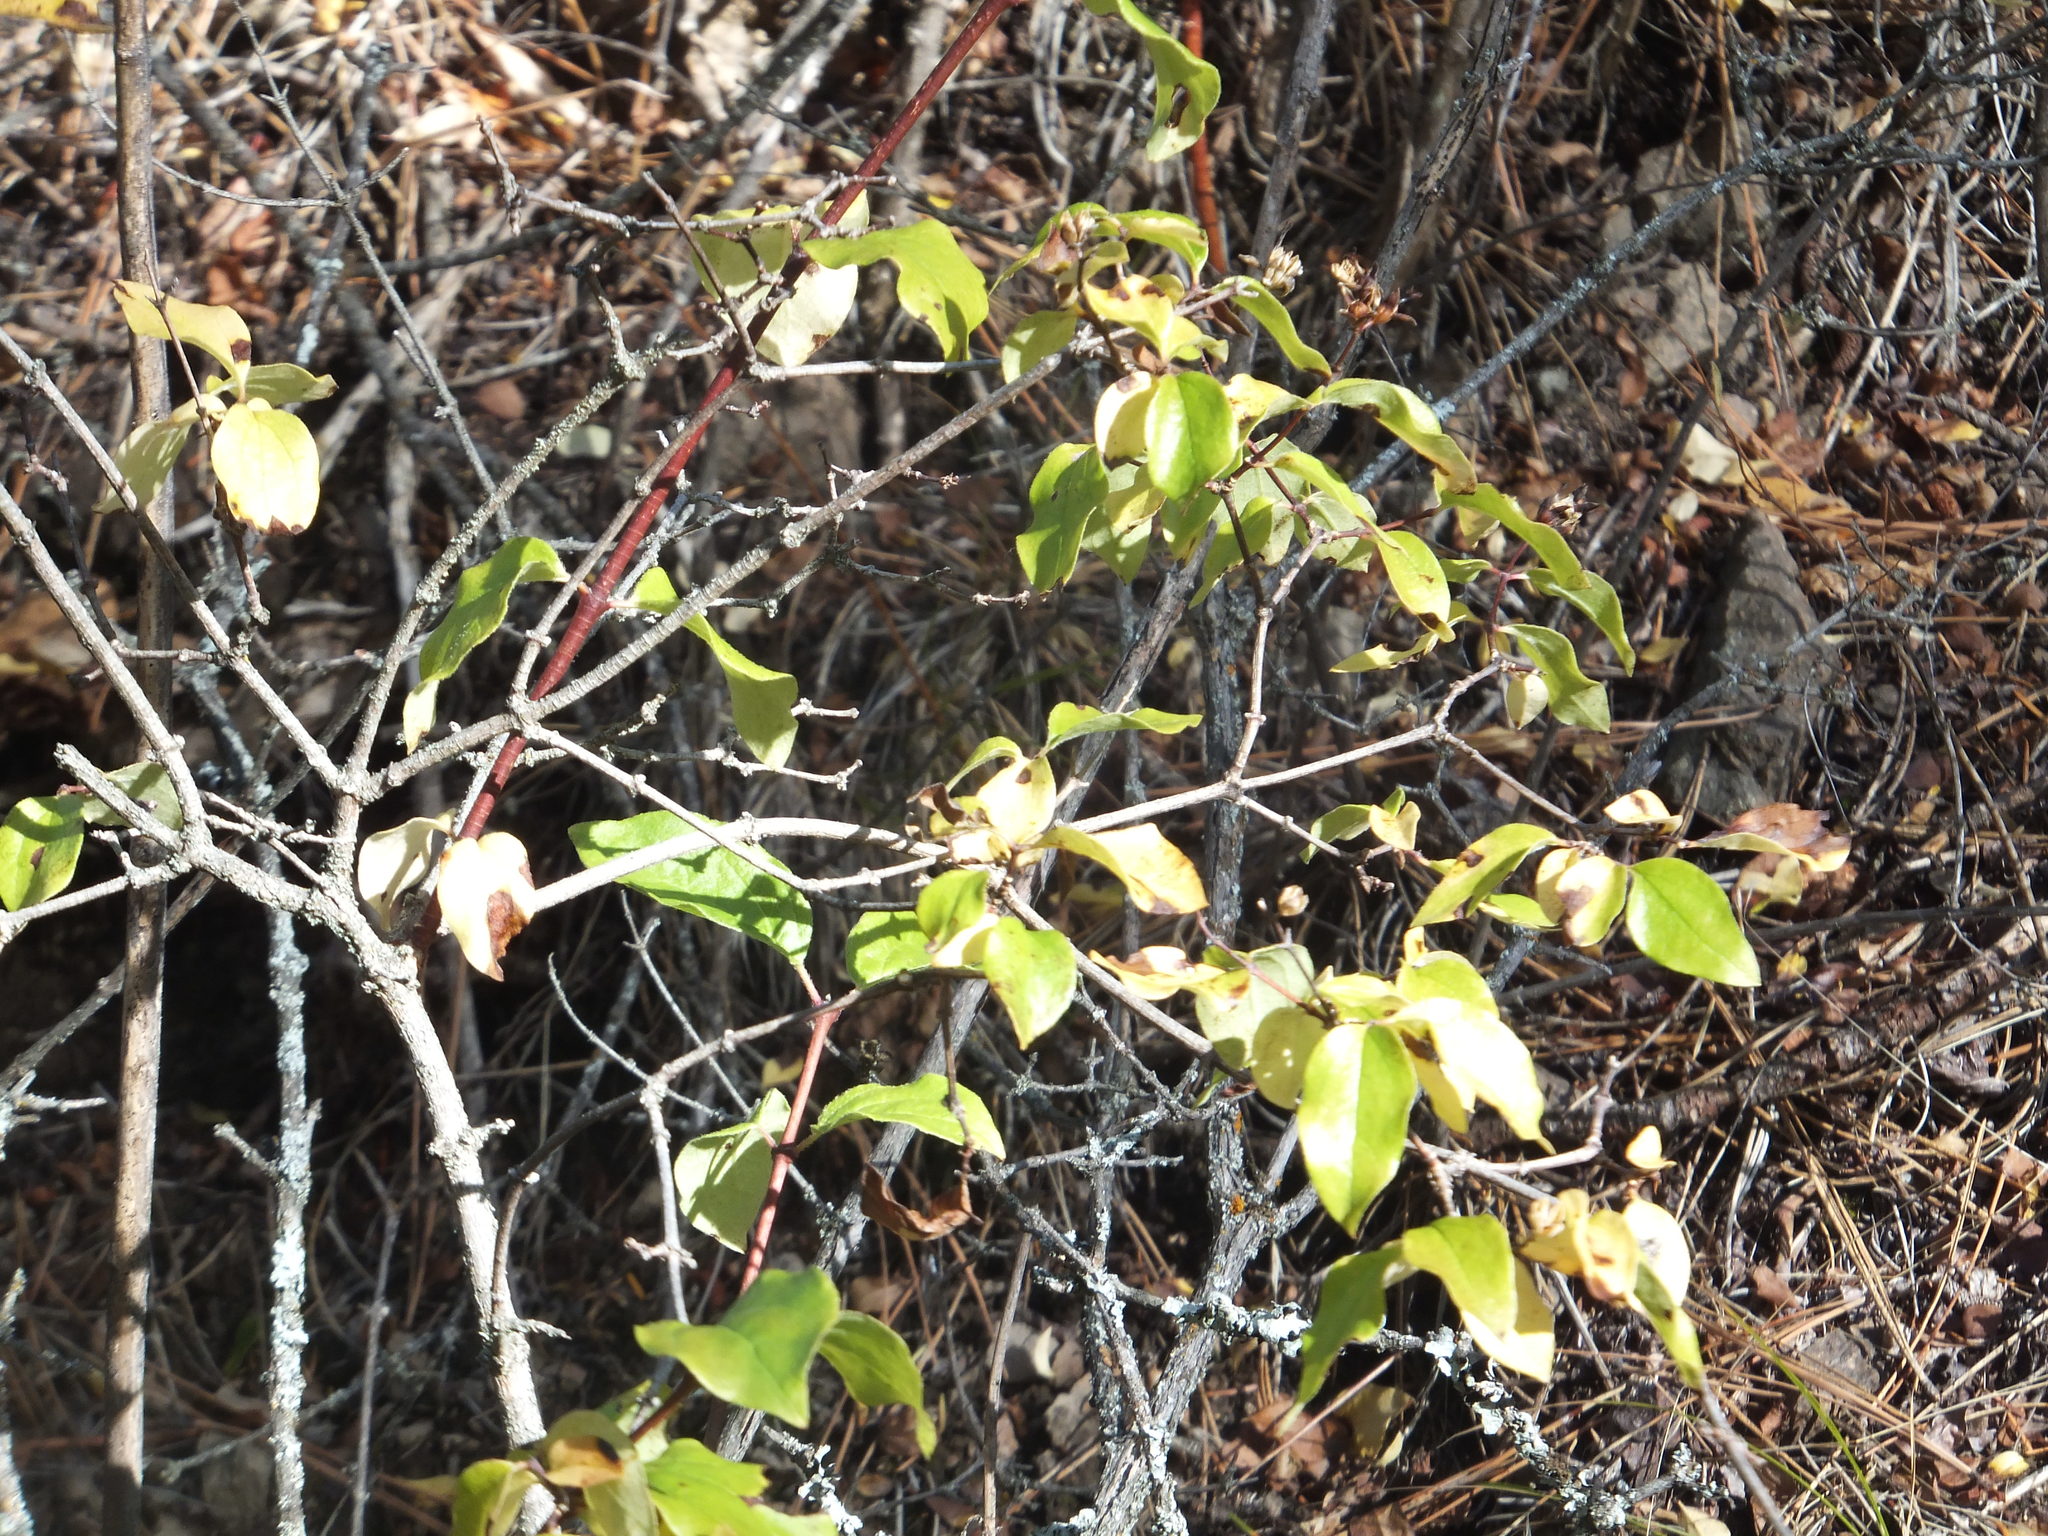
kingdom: Plantae
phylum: Tracheophyta
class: Magnoliopsida
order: Cornales
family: Hydrangeaceae
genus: Philadelphus
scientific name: Philadelphus lewisii
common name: Lewis's mock orange
